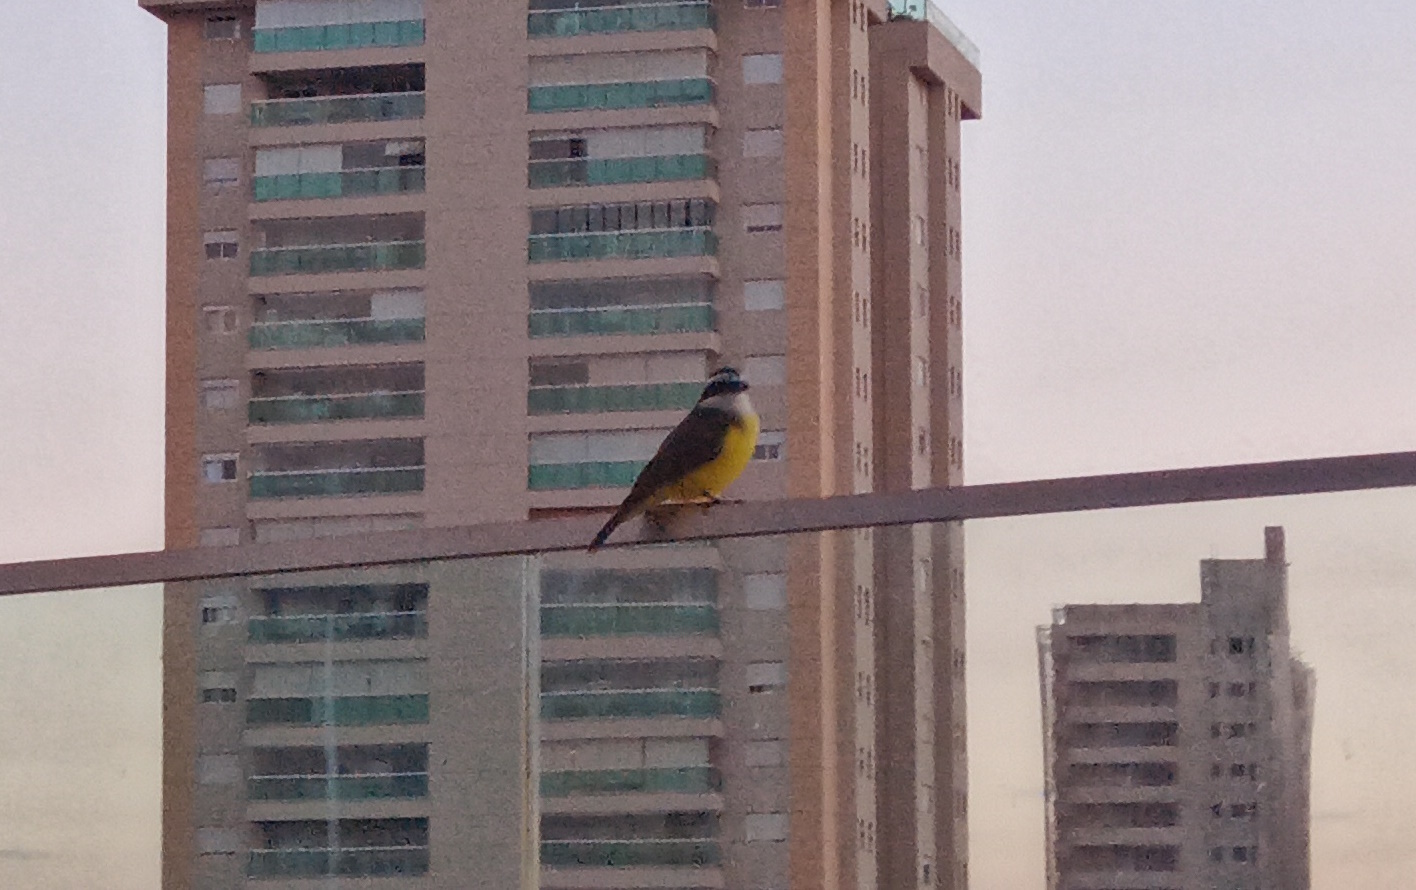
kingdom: Animalia
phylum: Chordata
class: Aves
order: Passeriformes
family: Tyrannidae
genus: Pitangus
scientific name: Pitangus sulphuratus
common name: Great kiskadee
